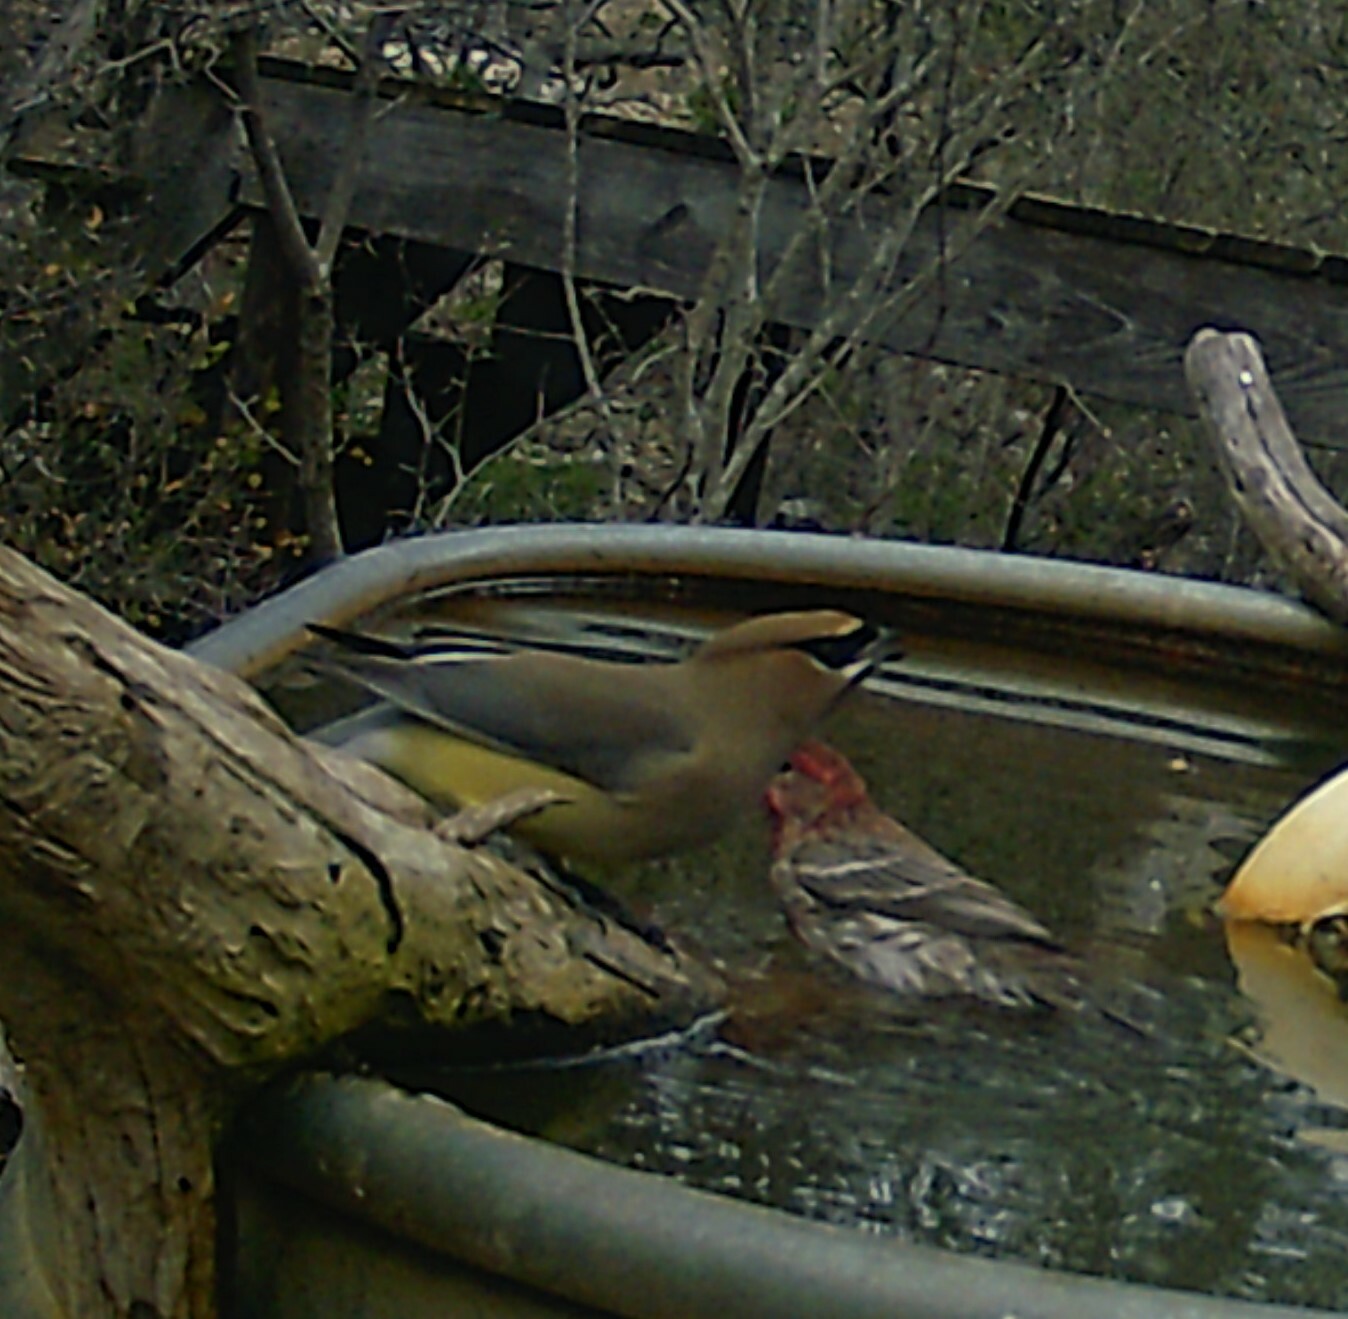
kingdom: Animalia
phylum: Chordata
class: Aves
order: Passeriformes
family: Bombycillidae
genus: Bombycilla
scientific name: Bombycilla cedrorum
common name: Cedar waxwing
